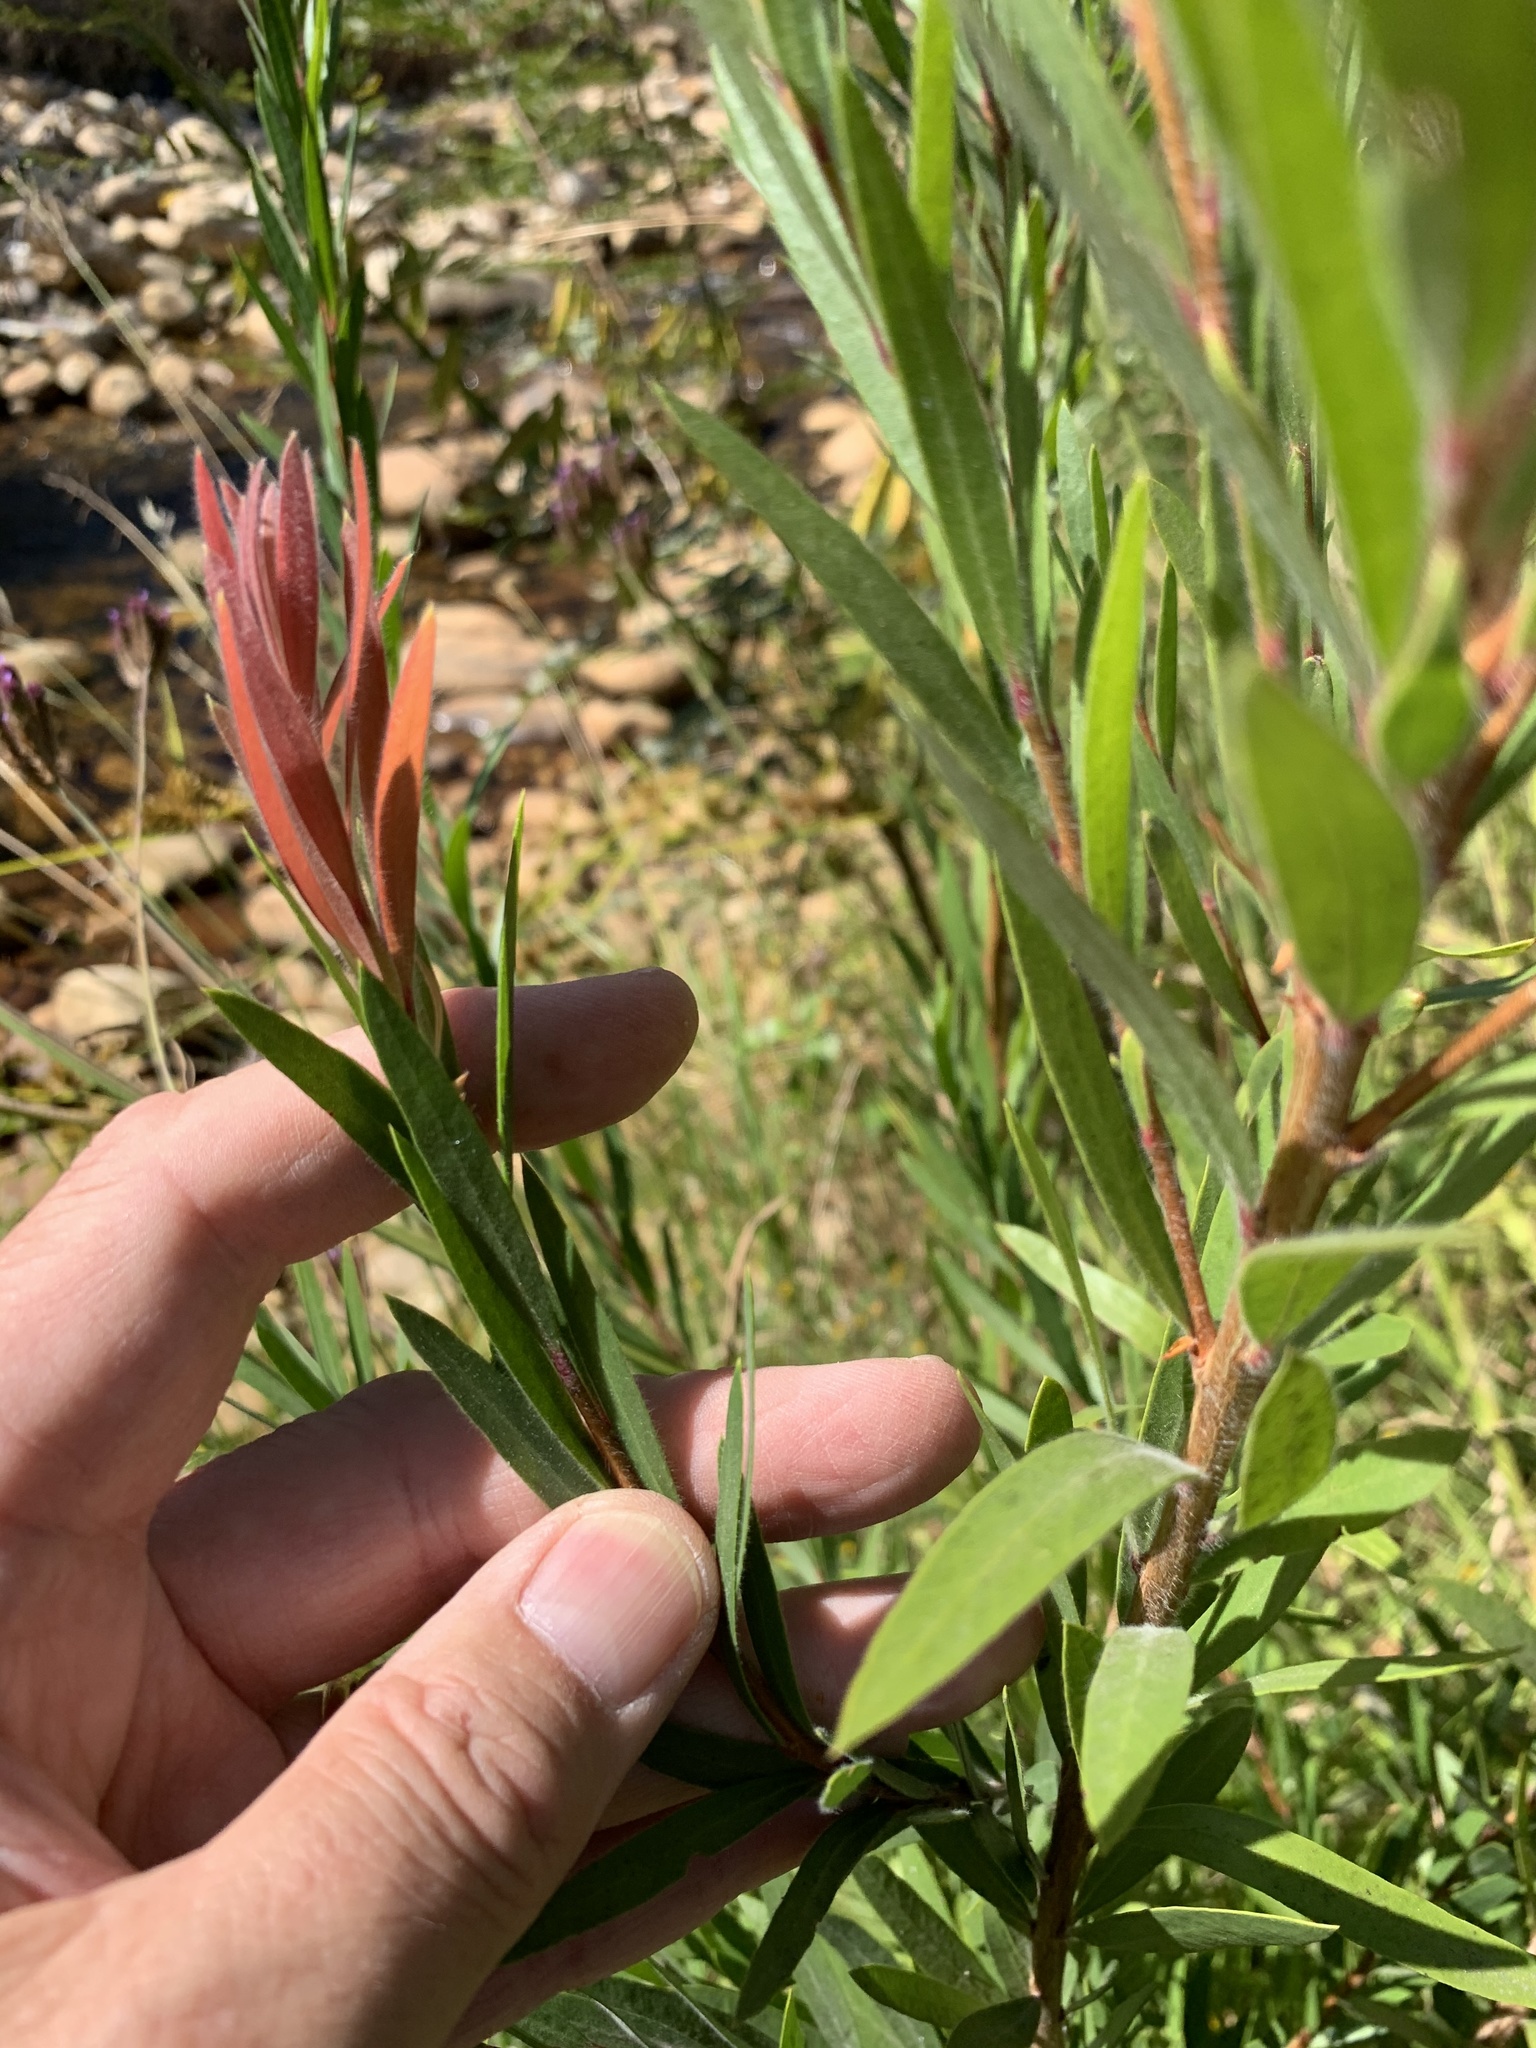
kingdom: Plantae
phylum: Tracheophyta
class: Magnoliopsida
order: Myrtales
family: Myrtaceae
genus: Callistemon
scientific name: Callistemon viminalis
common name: Drooping bottlebrush
